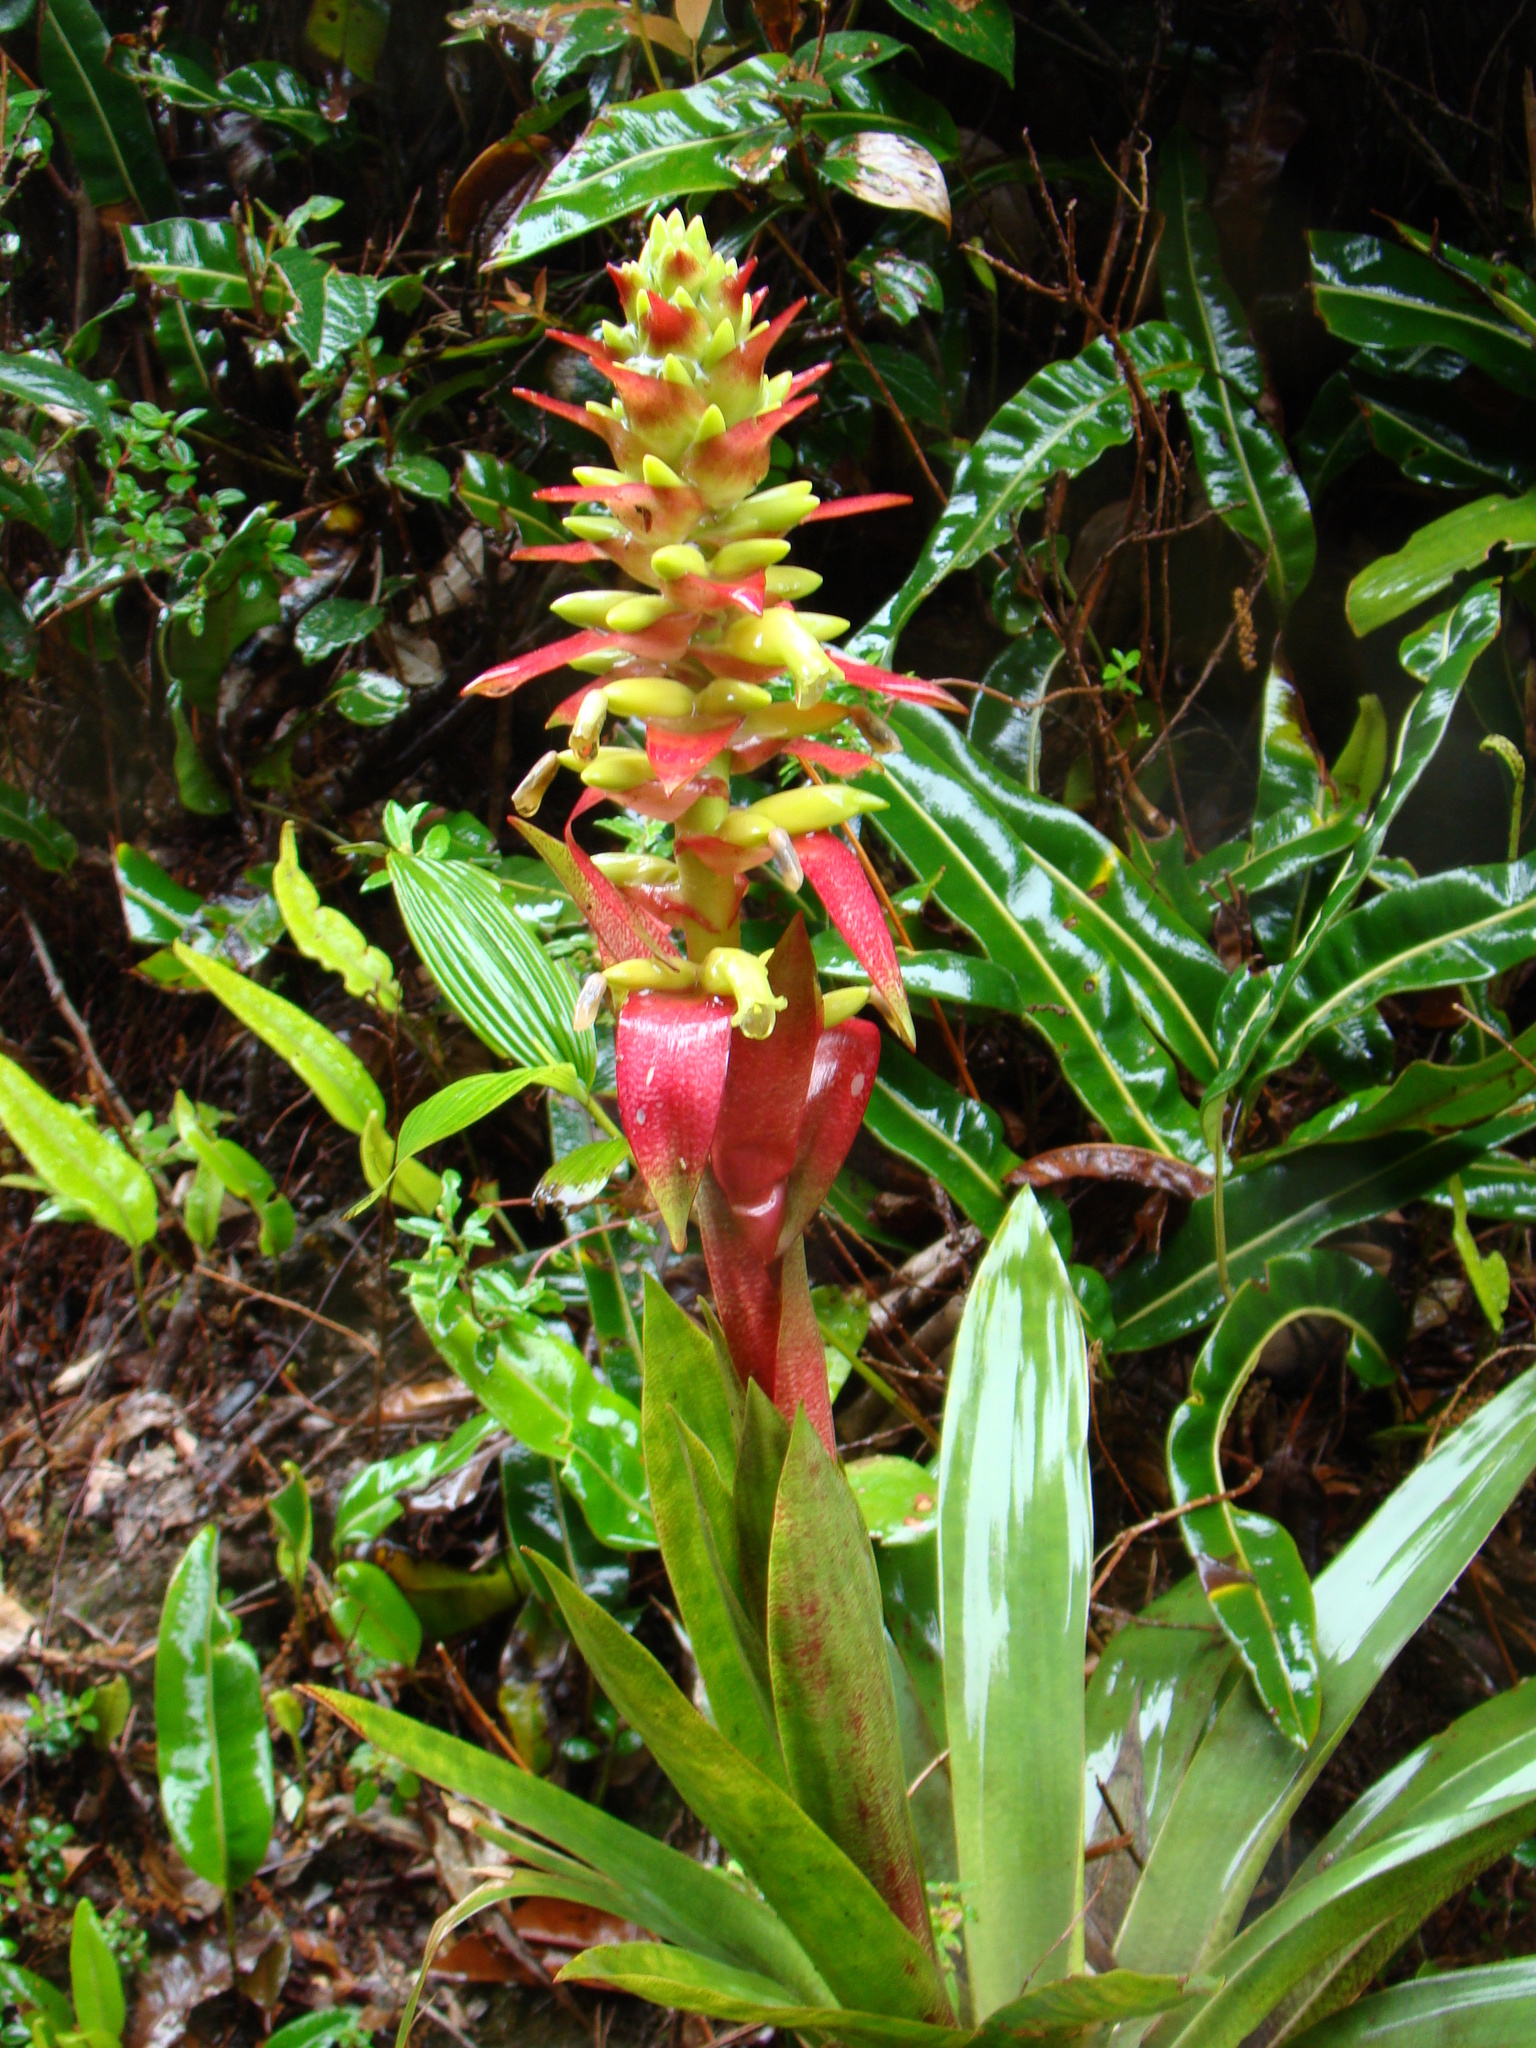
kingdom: Plantae
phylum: Tracheophyta
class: Liliopsida
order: Poales
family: Bromeliaceae
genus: Werauhia
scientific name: Werauhia ororiensis
